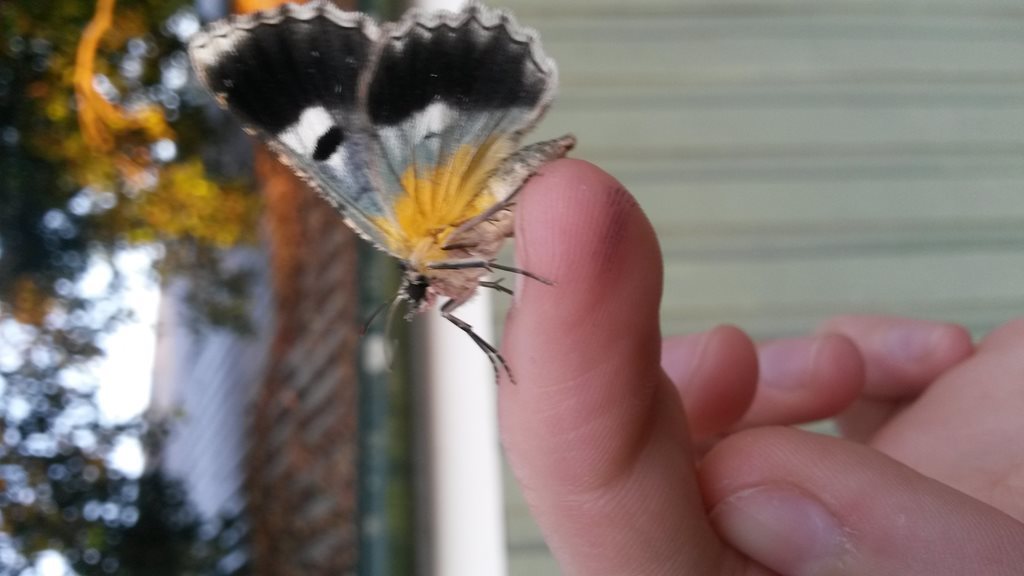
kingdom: Animalia
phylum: Arthropoda
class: Insecta
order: Lepidoptera
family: Geometridae
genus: Hypodoxa
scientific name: Hypodoxa emiliaria
